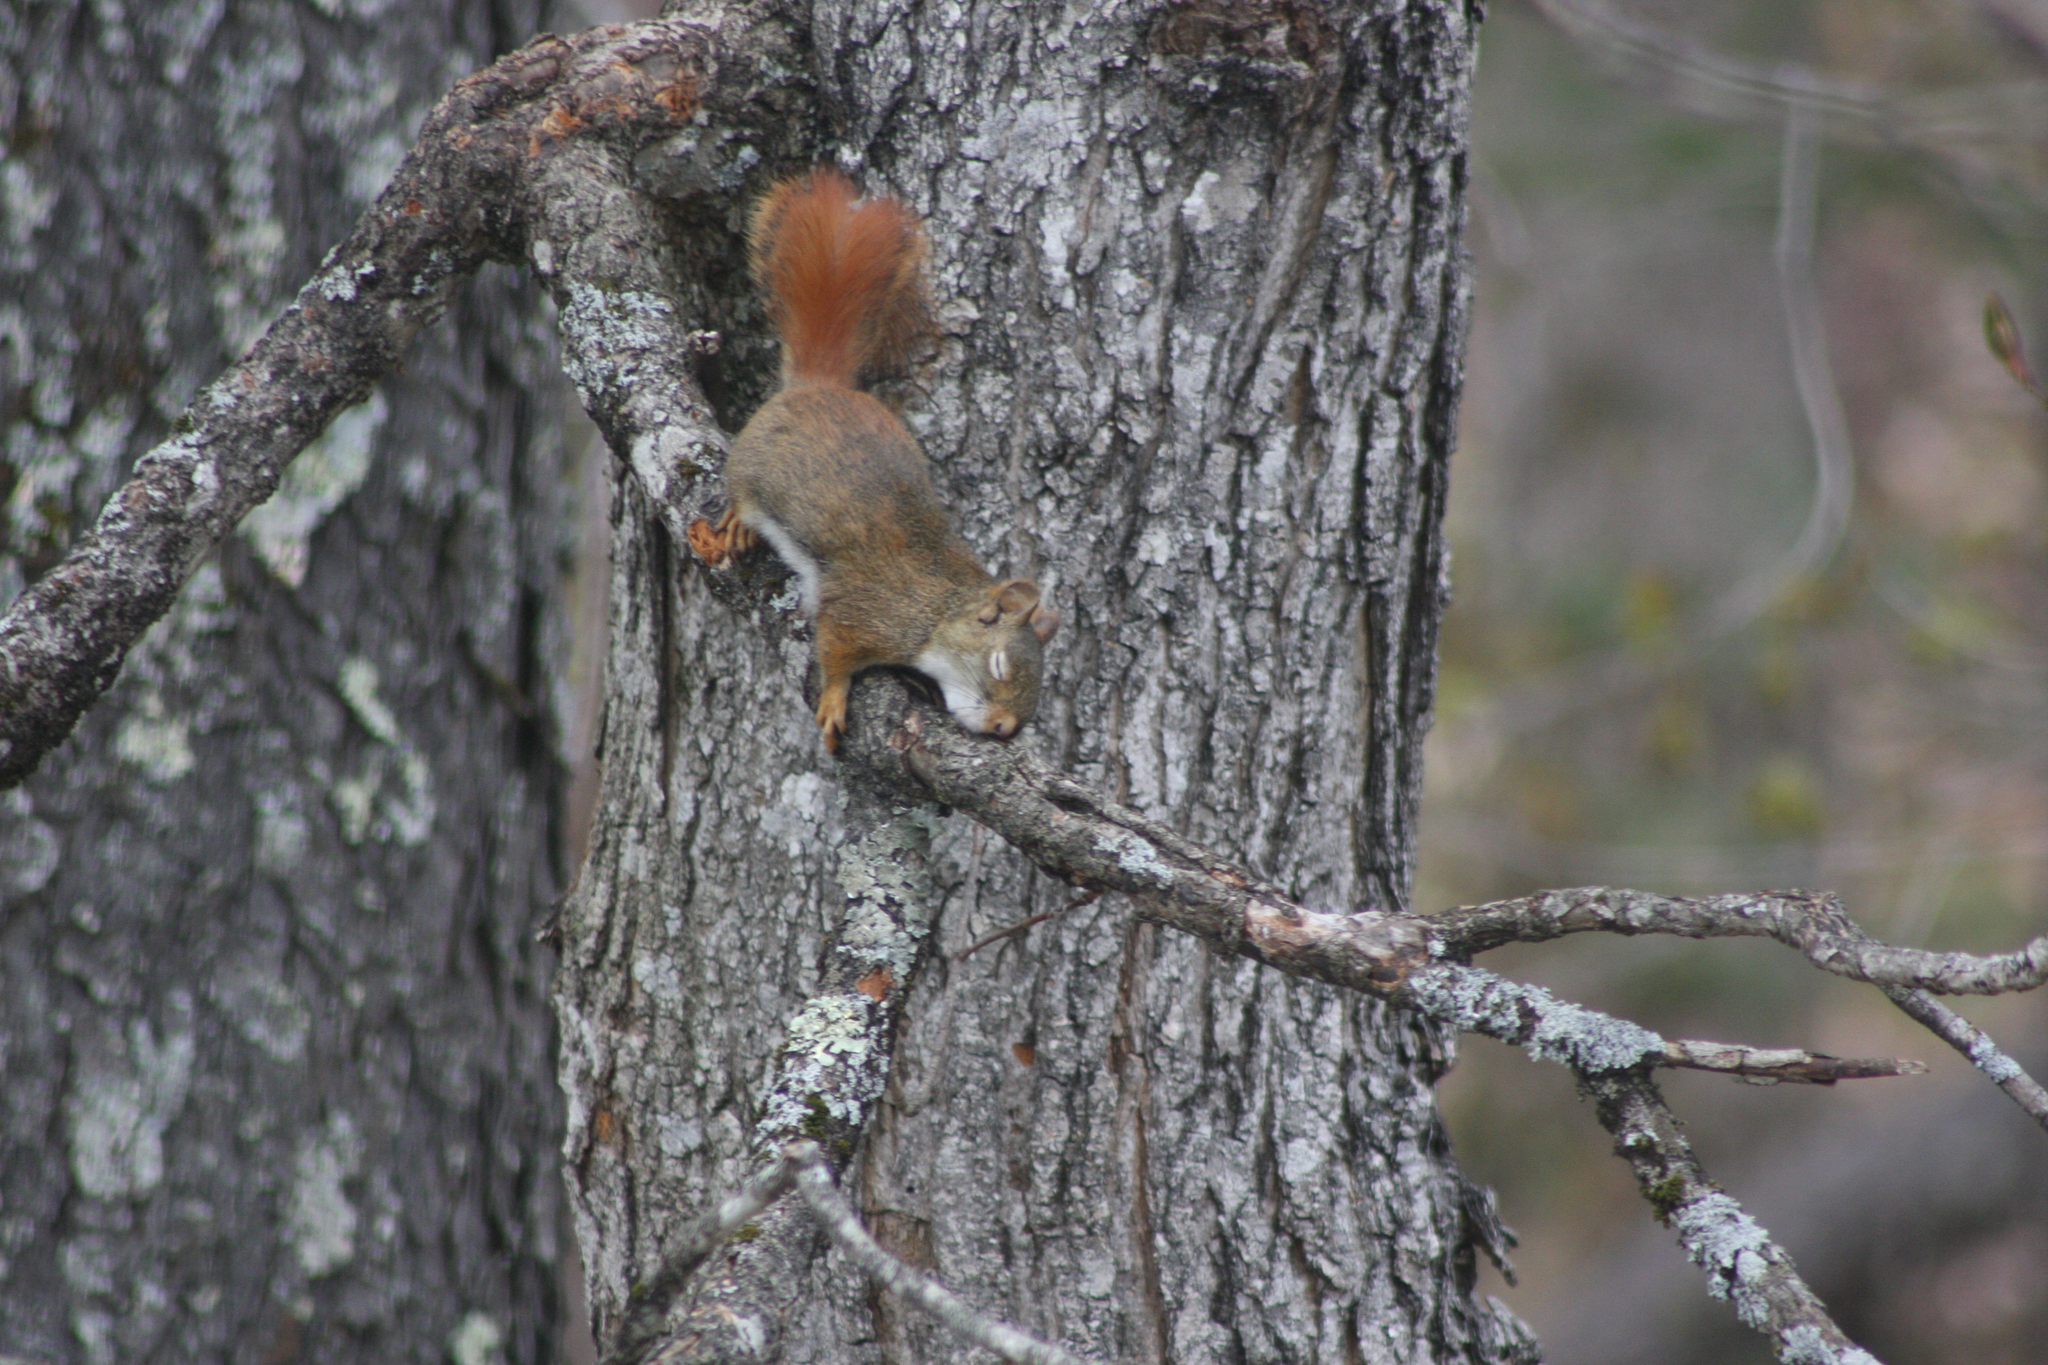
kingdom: Animalia
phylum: Chordata
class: Mammalia
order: Rodentia
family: Sciuridae
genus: Tamiasciurus
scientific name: Tamiasciurus hudsonicus
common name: Red squirrel
